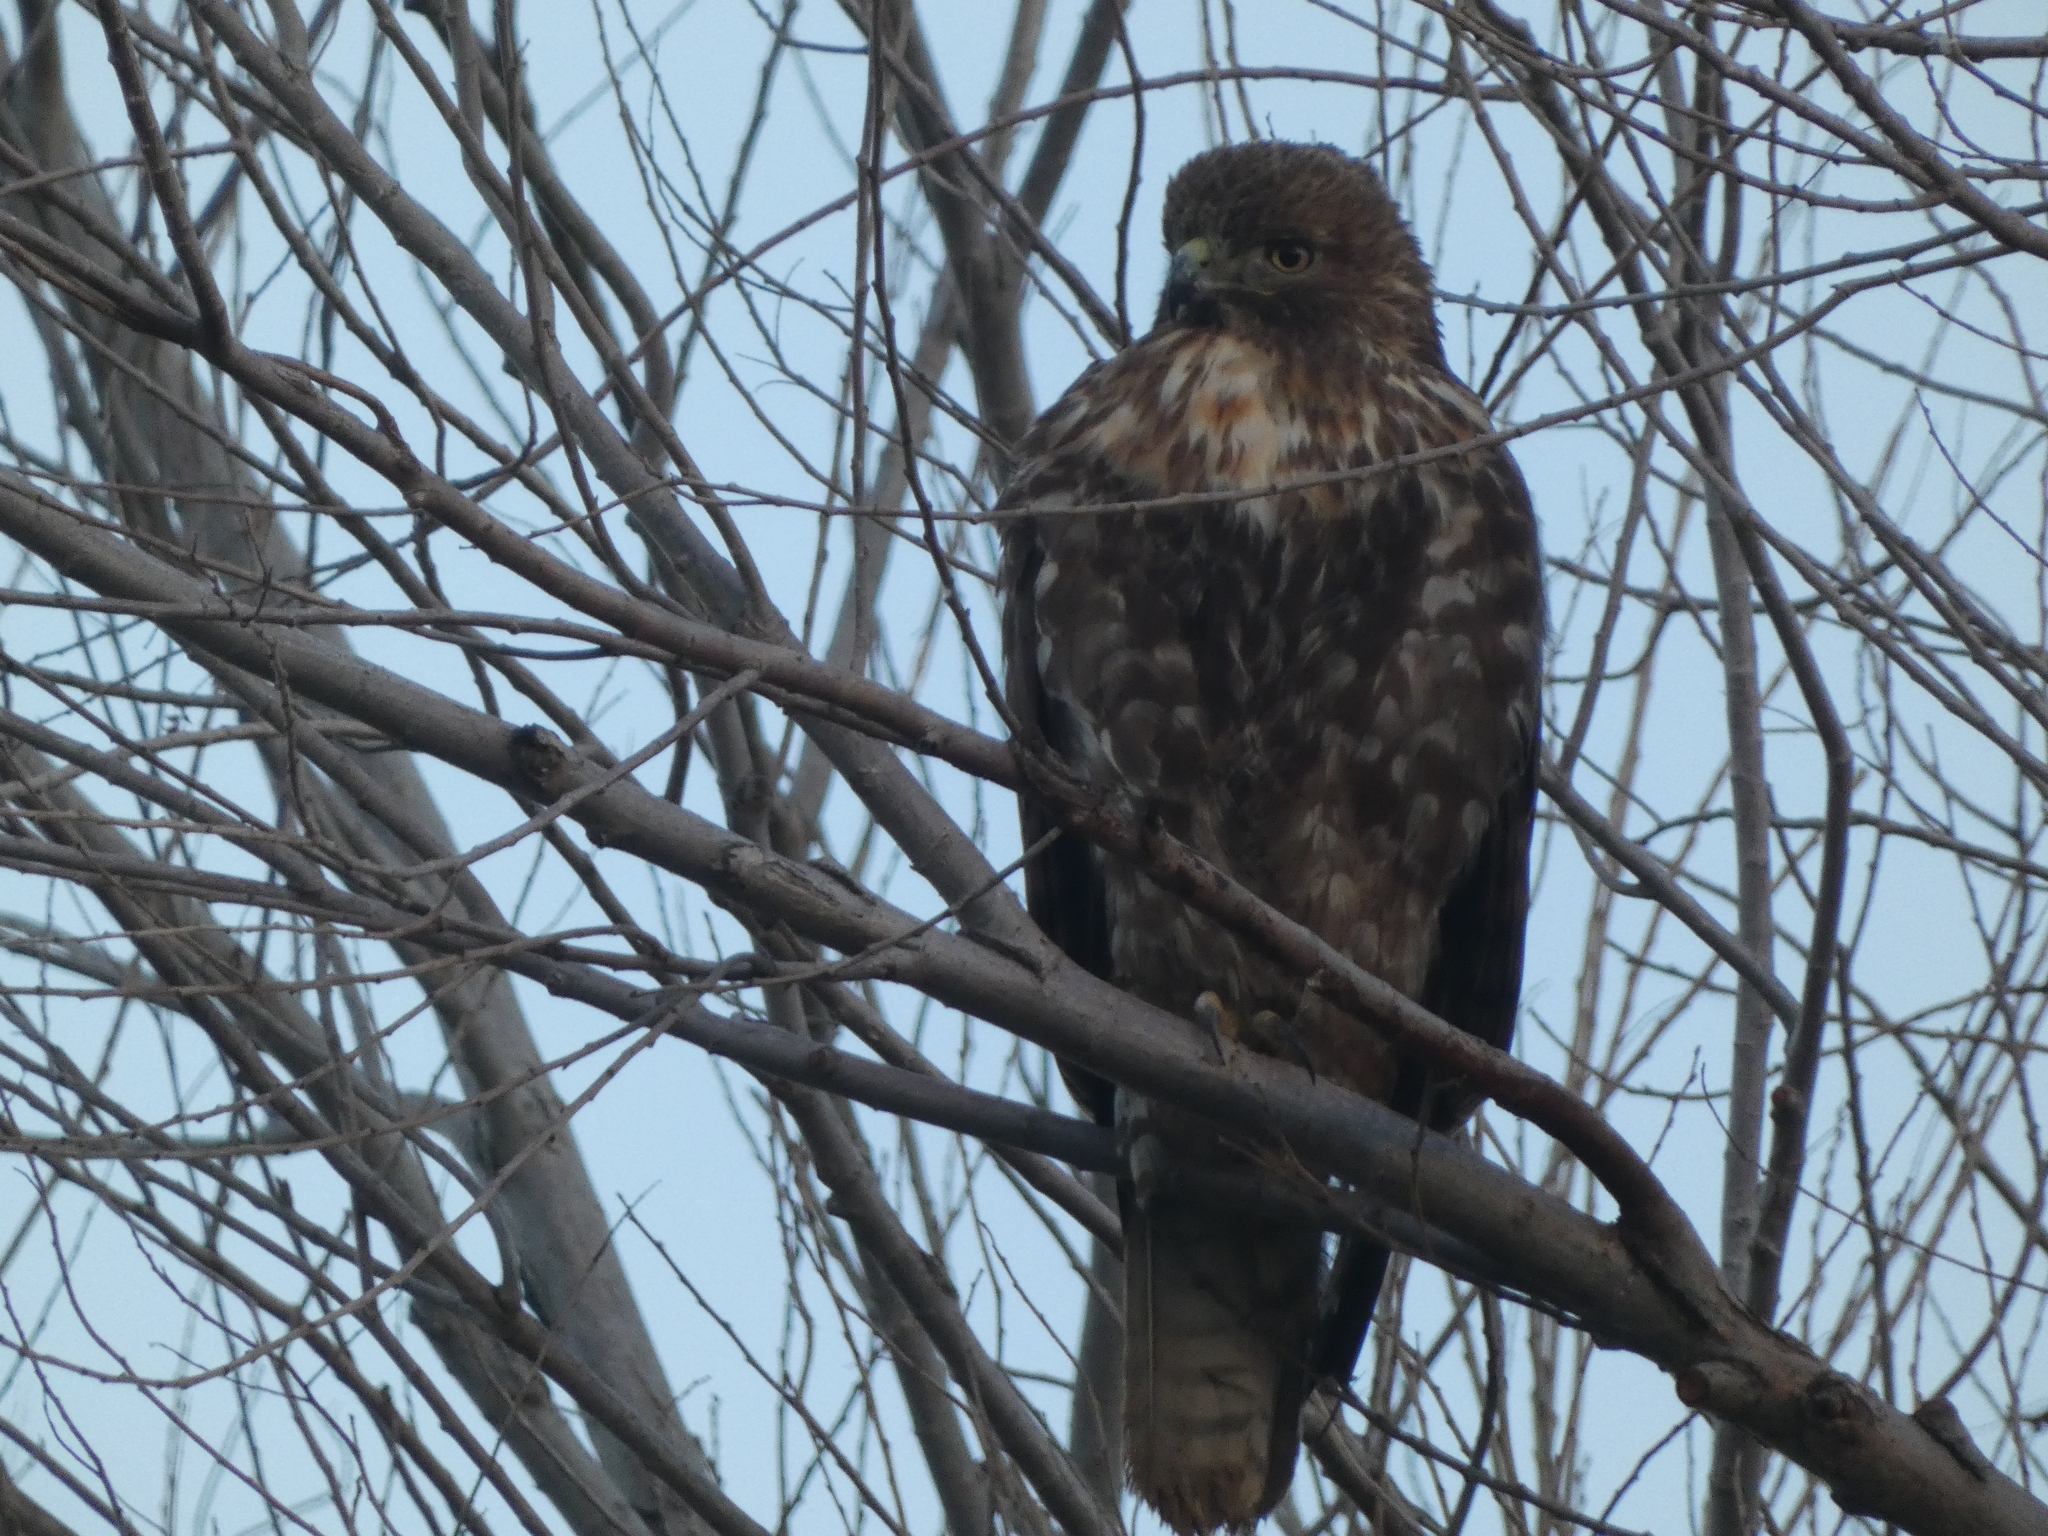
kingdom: Animalia
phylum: Chordata
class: Aves
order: Accipitriformes
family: Accipitridae
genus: Buteo
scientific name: Buteo jamaicensis
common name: Red-tailed hawk
